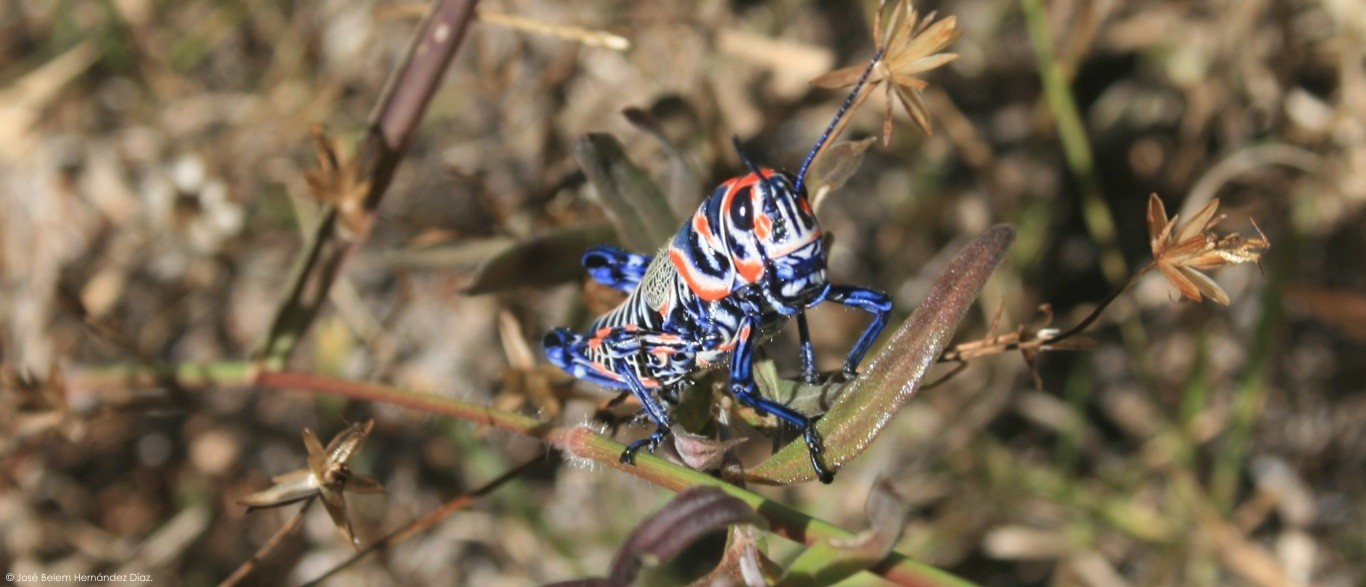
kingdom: Animalia
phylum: Arthropoda
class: Insecta
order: Orthoptera
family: Acrididae
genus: Dactylotum
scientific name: Dactylotum bicolor
